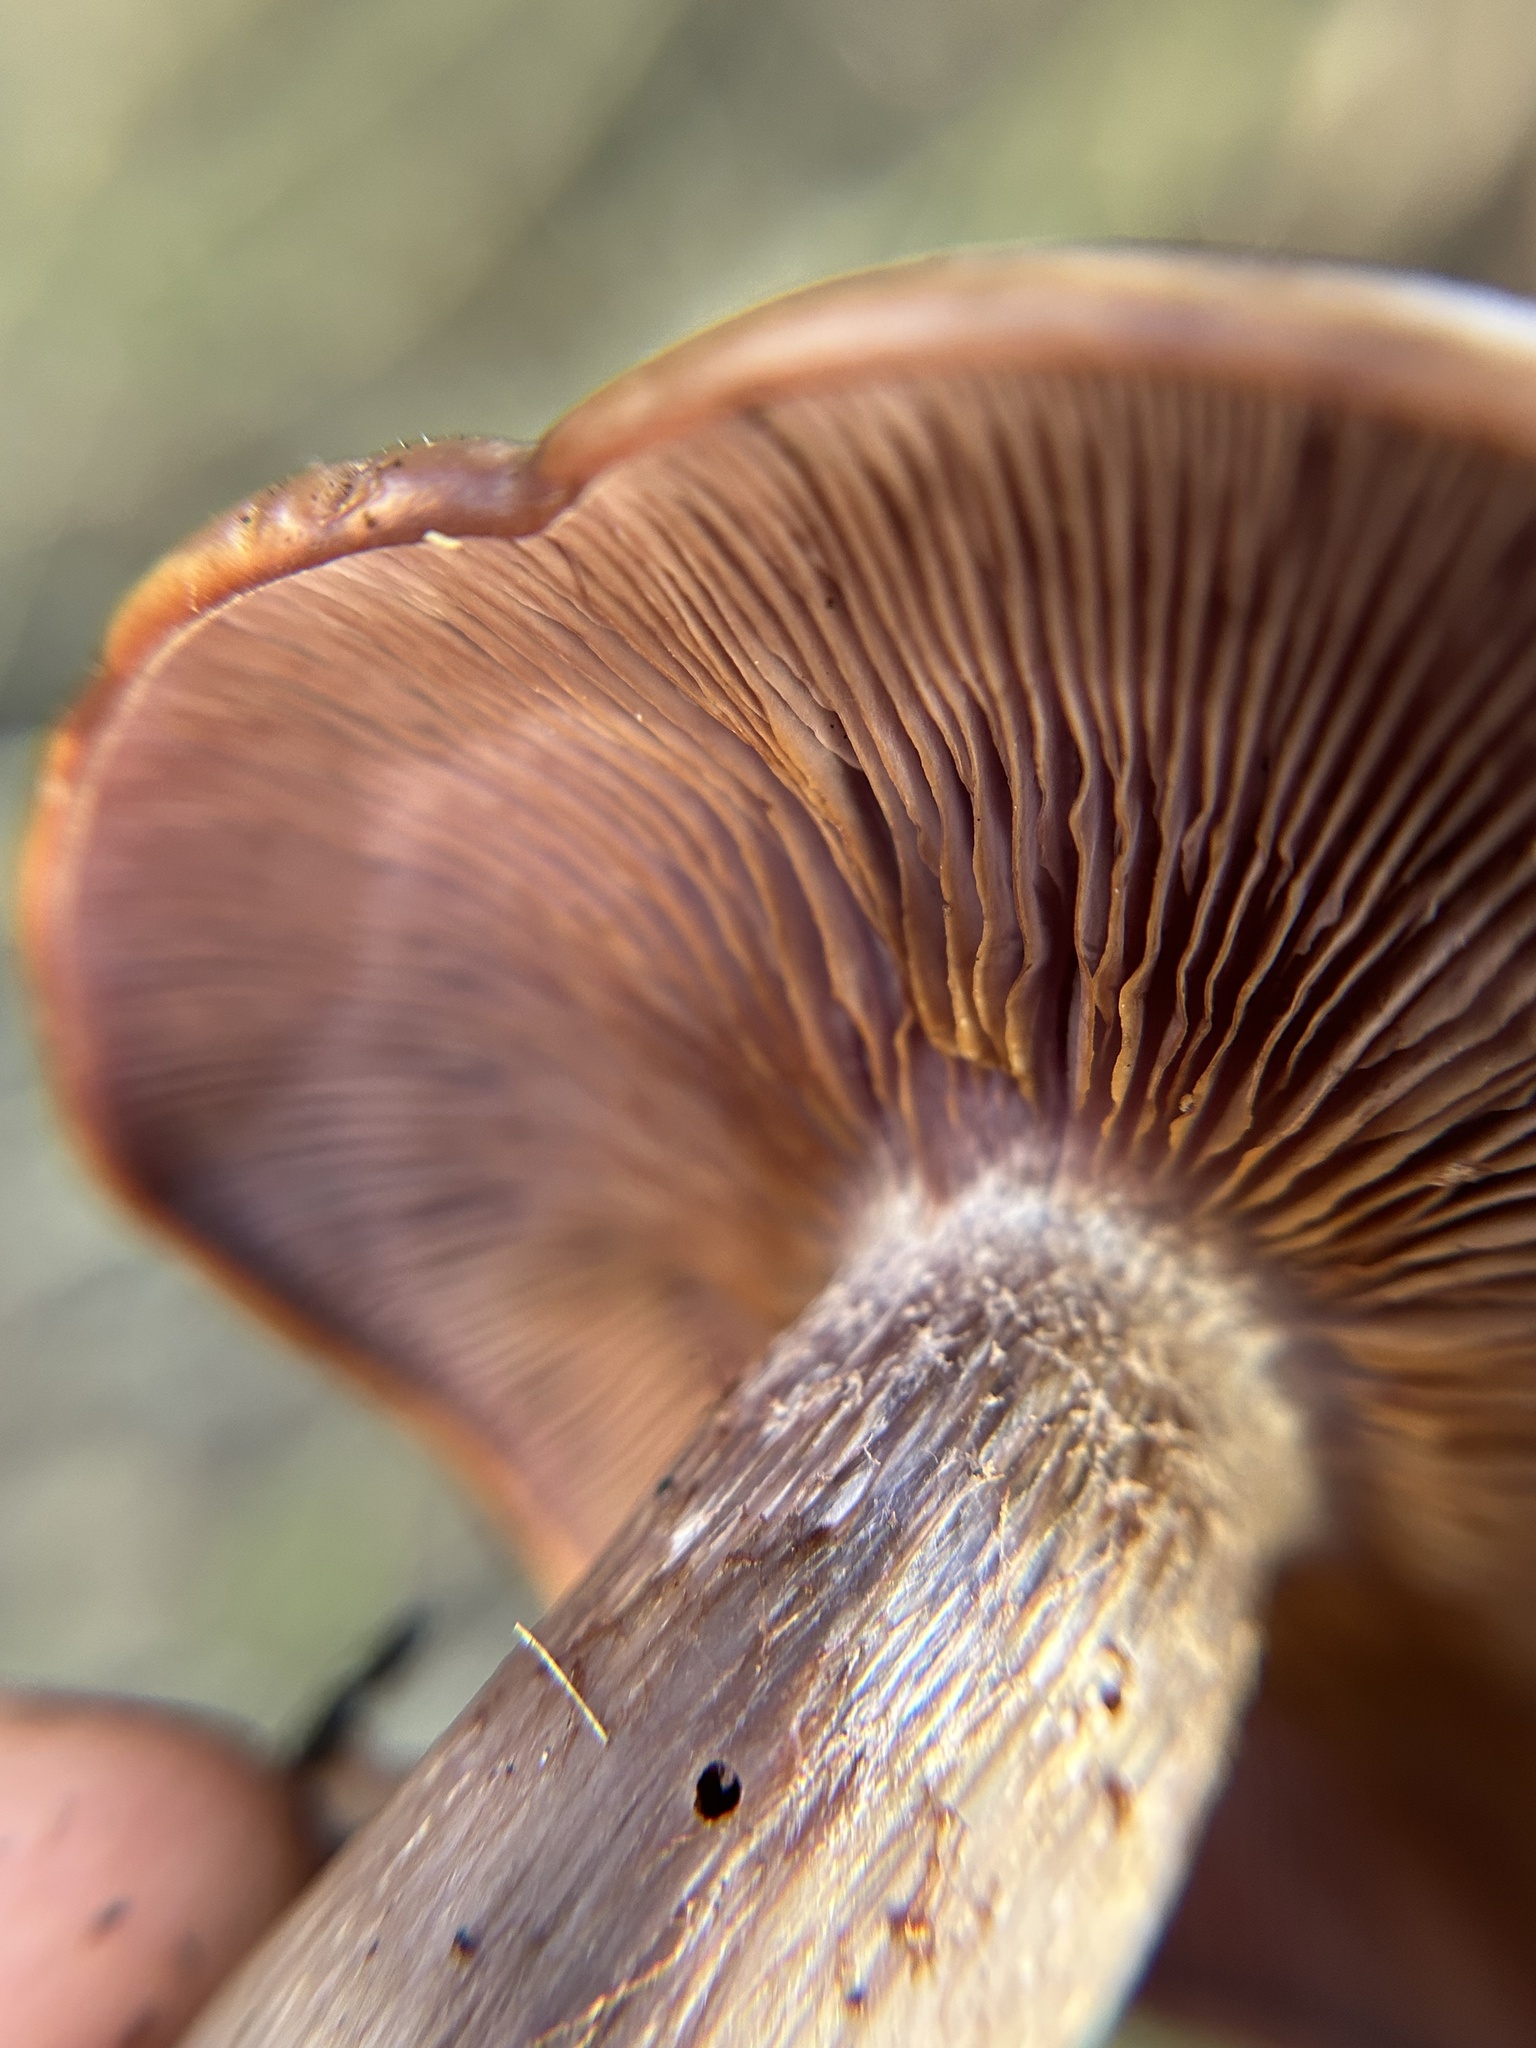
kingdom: Fungi
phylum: Basidiomycota
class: Agaricomycetes
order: Agaricales
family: Tricholomataceae
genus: Collybia
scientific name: Collybia
